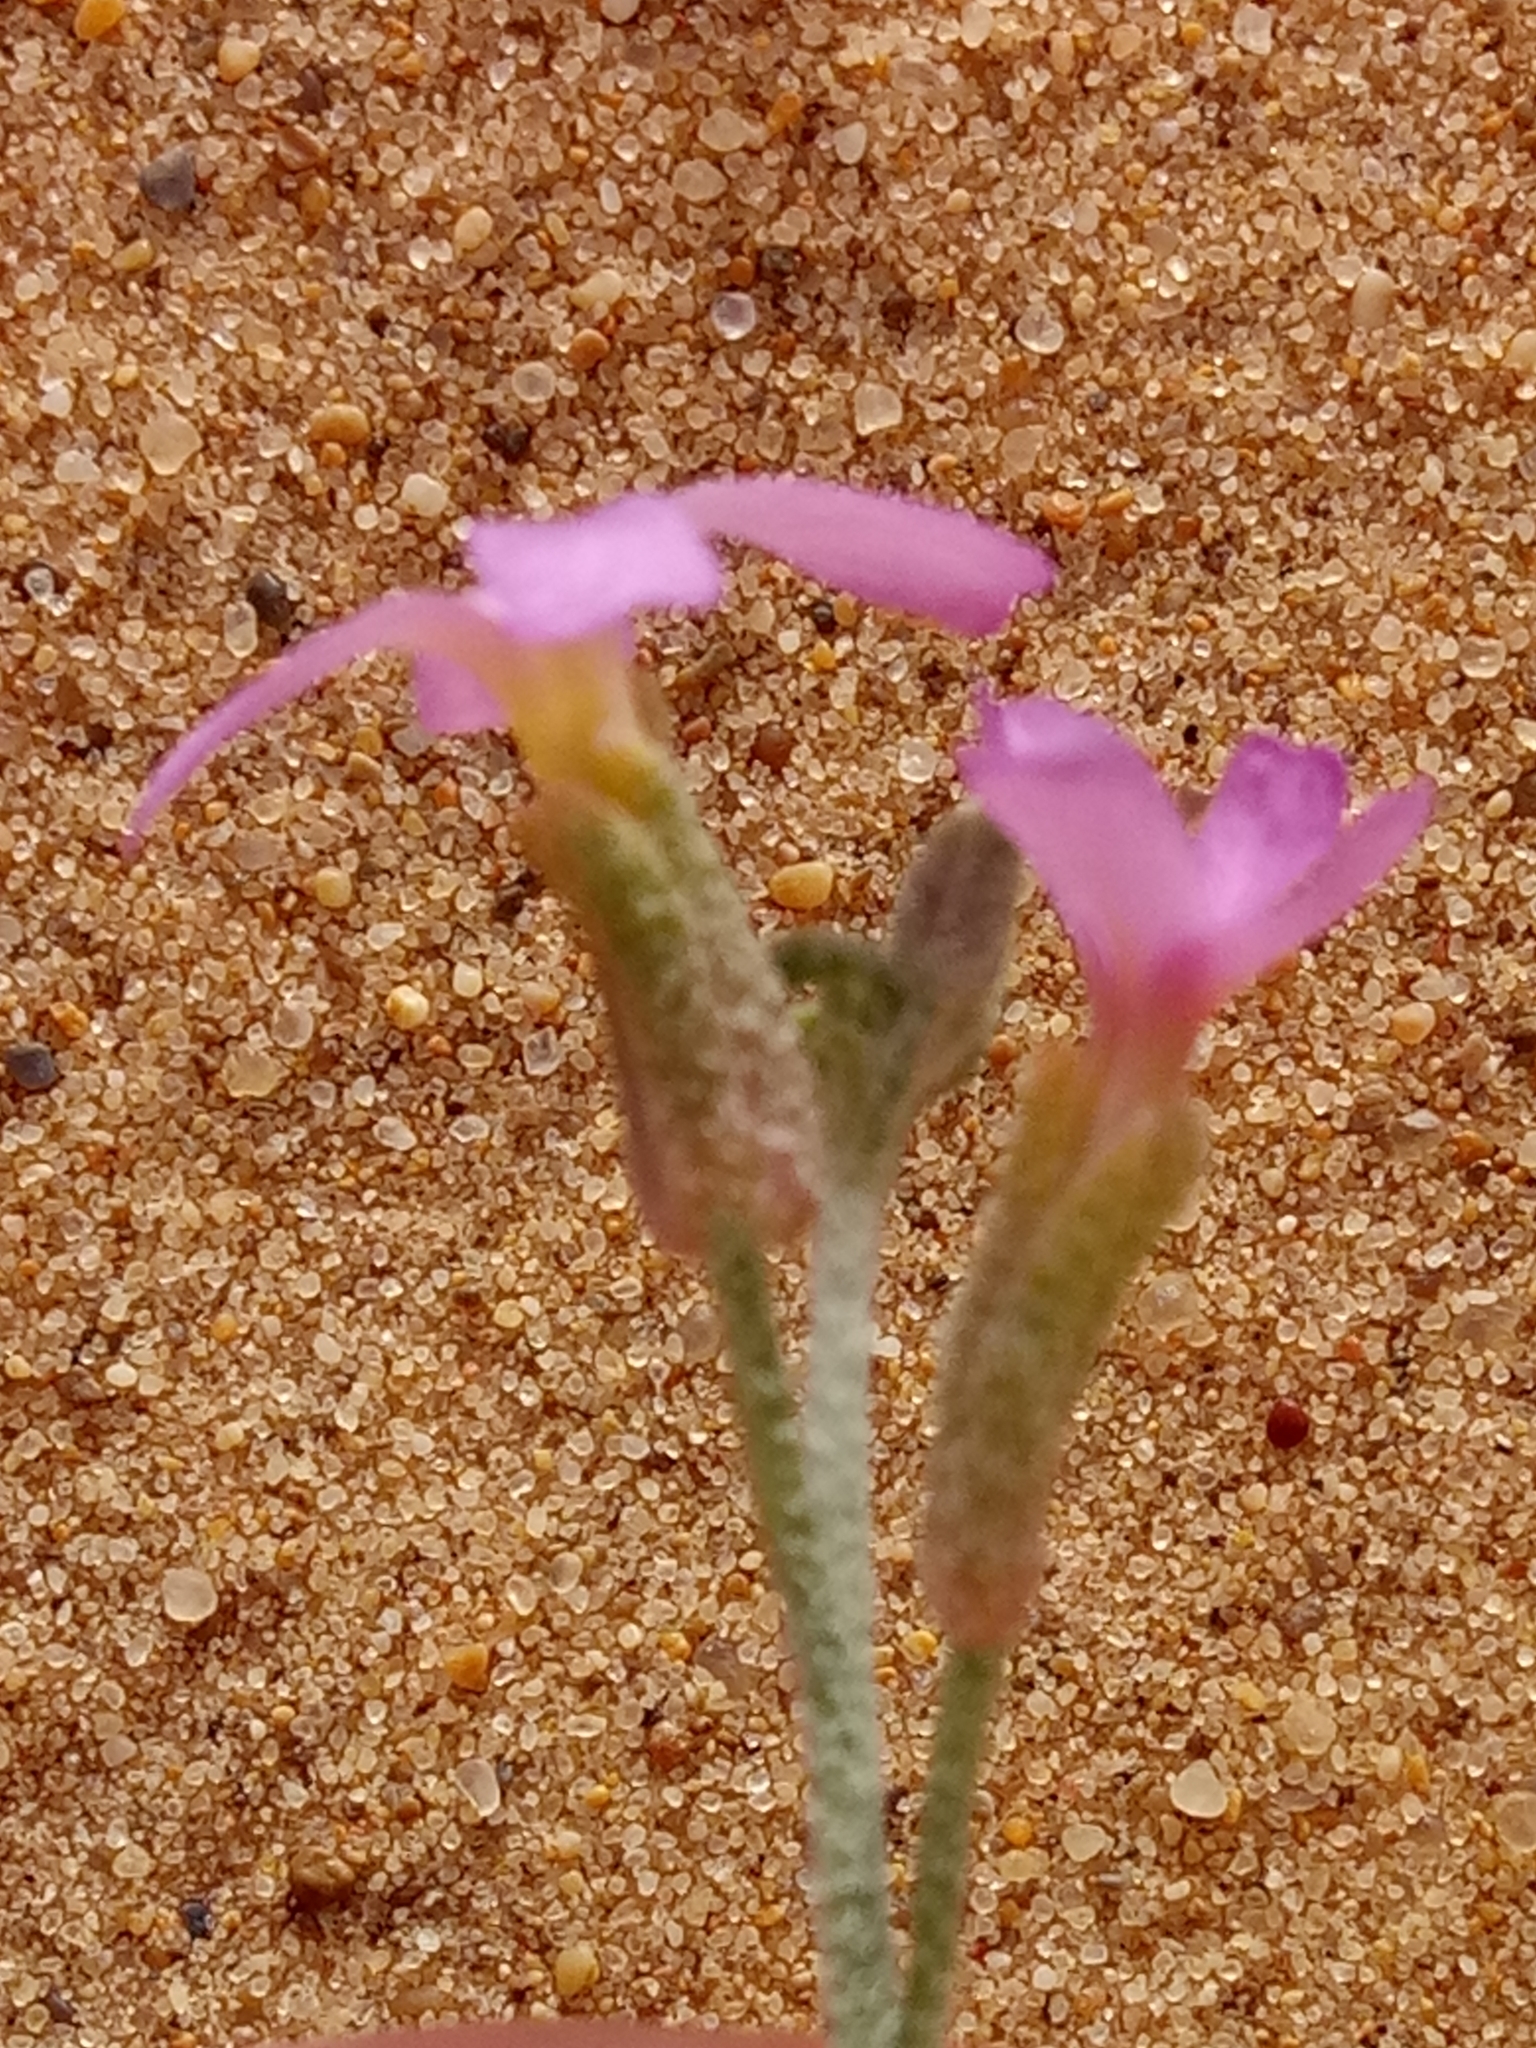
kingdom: Plantae
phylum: Tracheophyta
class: Magnoliopsida
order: Brassicales
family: Brassicaceae
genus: Eremobium
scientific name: Eremobium aegyptiacum
